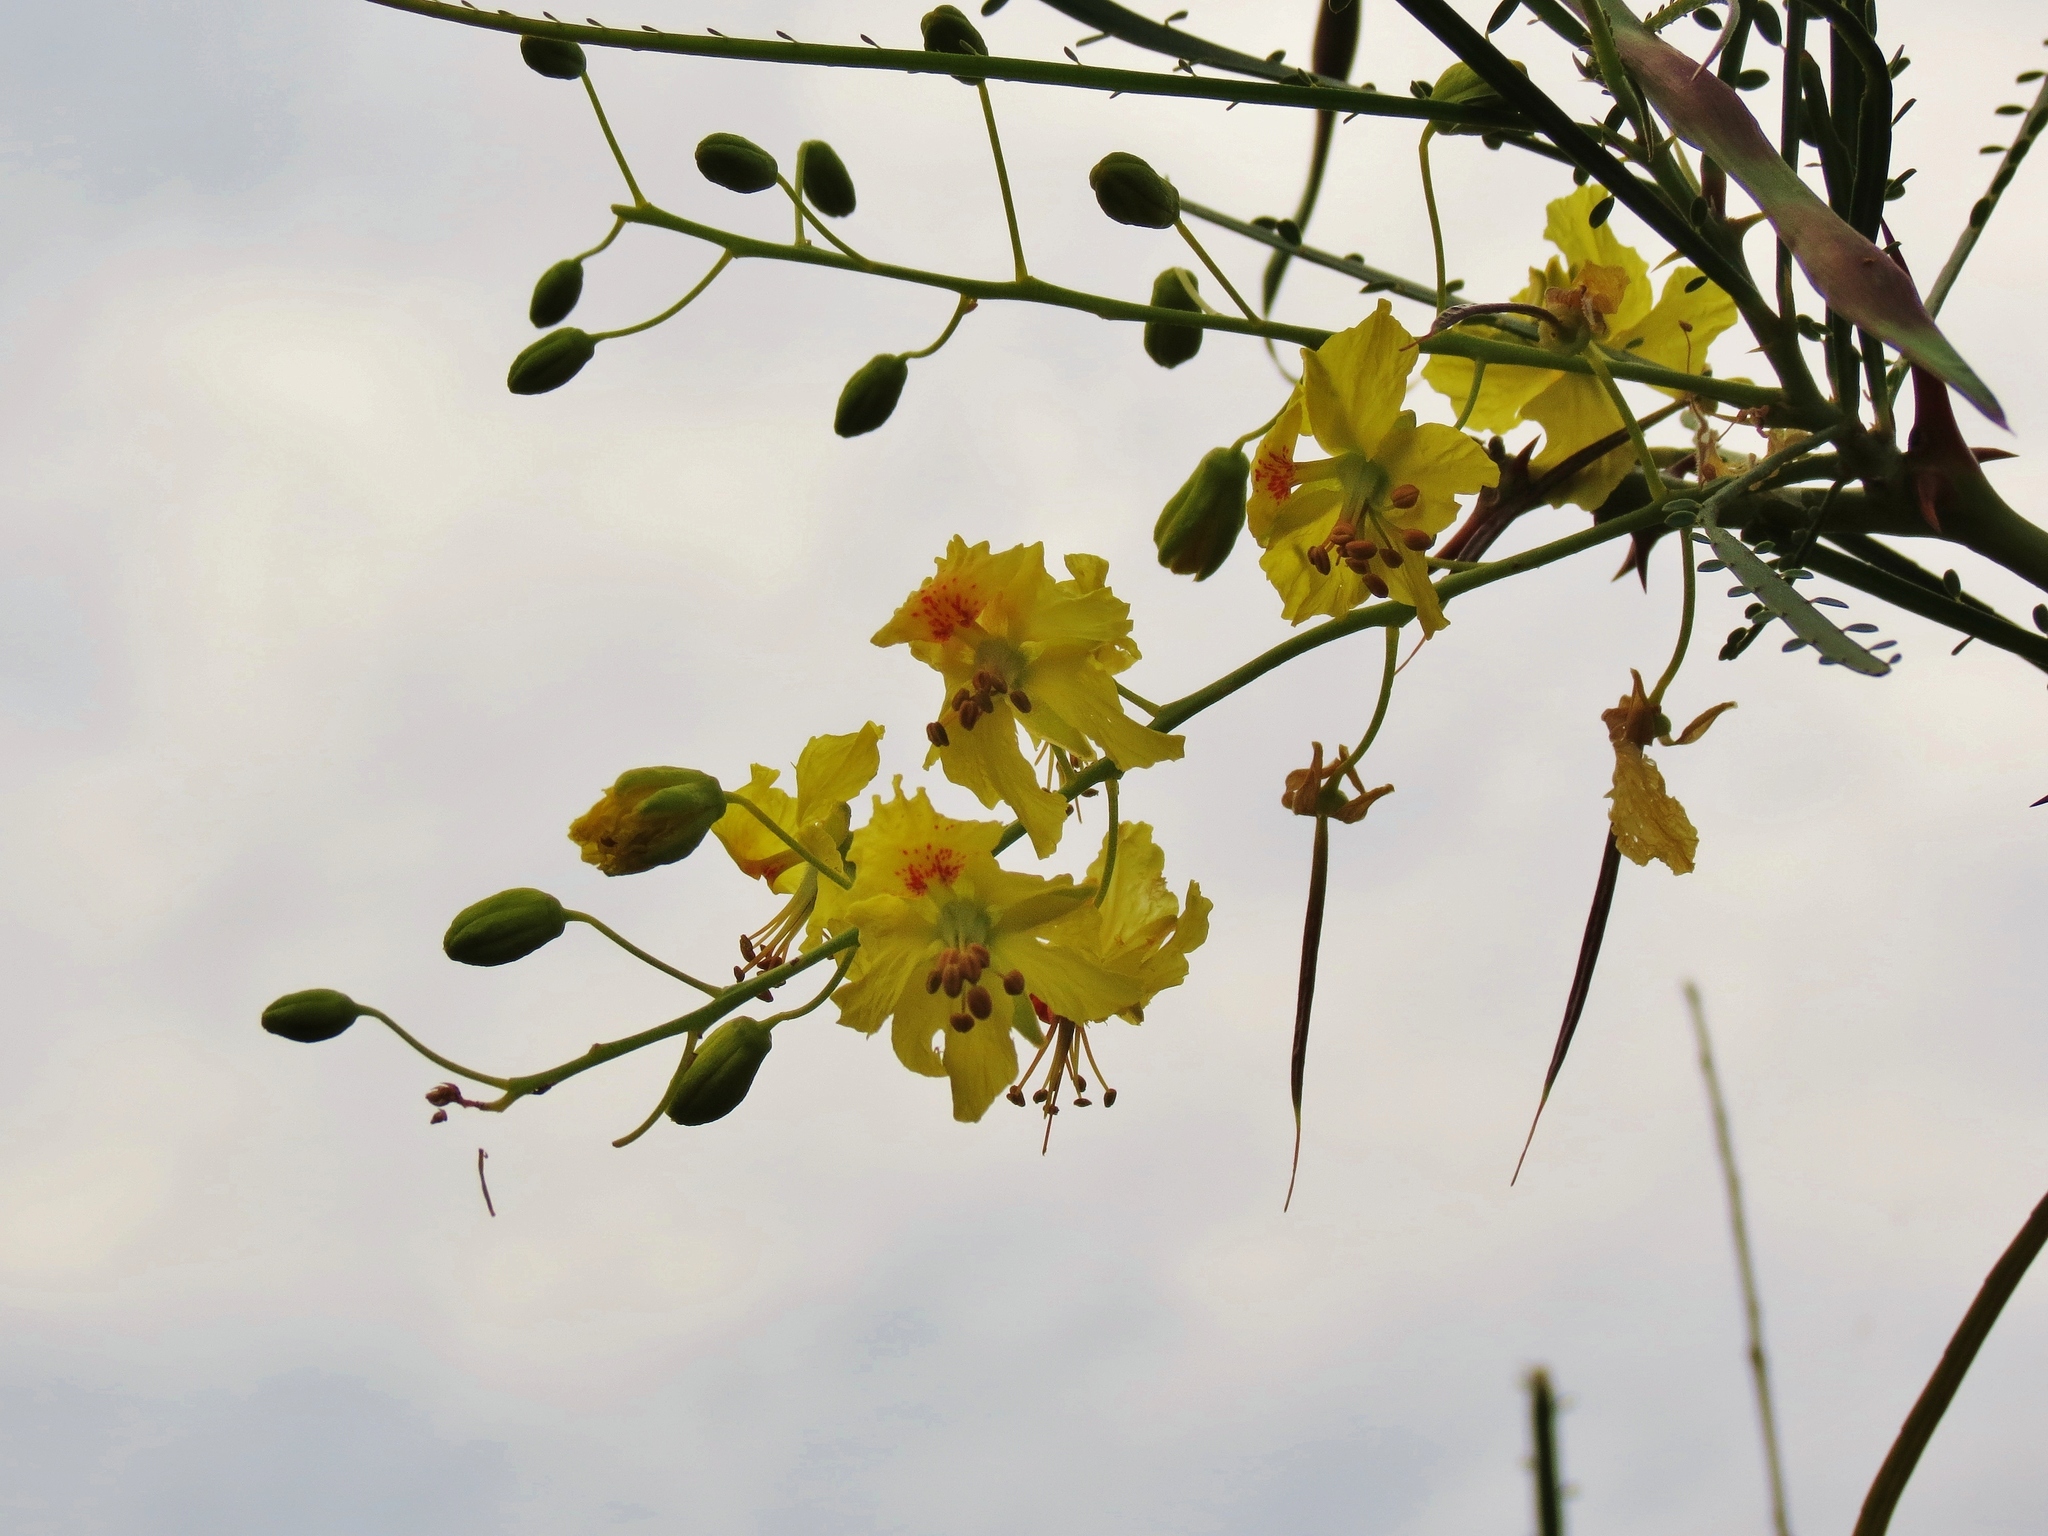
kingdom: Plantae
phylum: Tracheophyta
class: Magnoliopsida
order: Fabales
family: Fabaceae
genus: Parkinsonia
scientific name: Parkinsonia aculeata
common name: Jerusalem thorn
